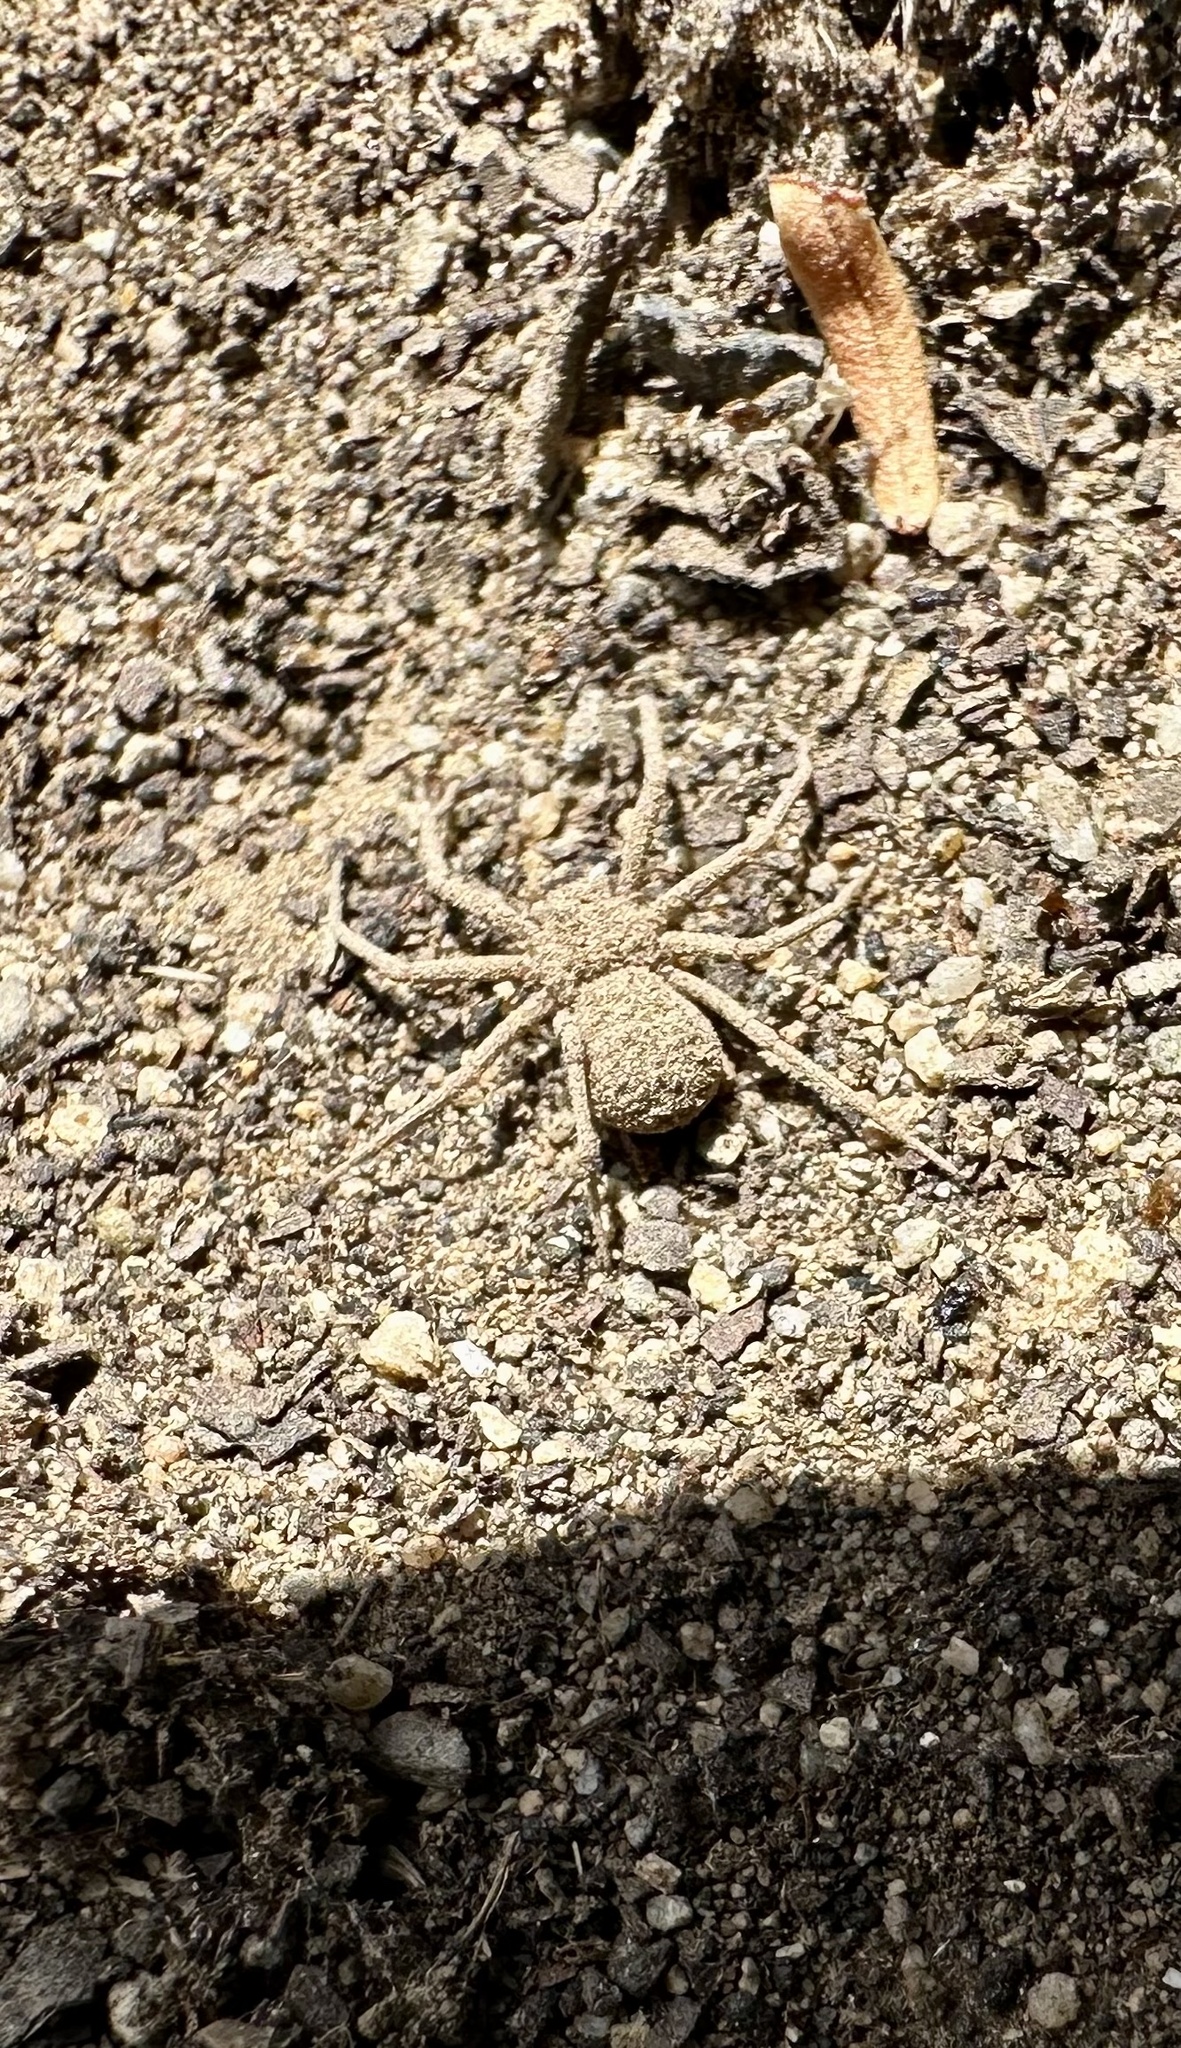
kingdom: Animalia
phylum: Arthropoda
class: Arachnida
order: Araneae
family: Sicariidae
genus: Sicarius
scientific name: Sicarius thomisoides
